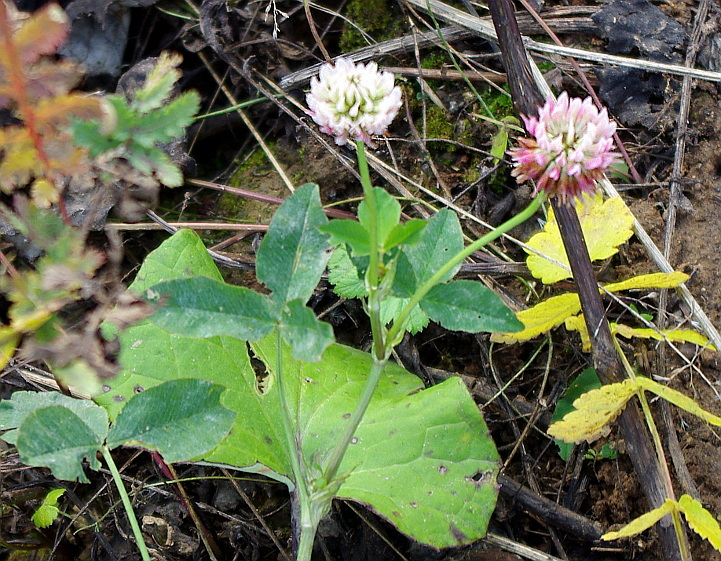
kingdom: Plantae
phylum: Tracheophyta
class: Magnoliopsida
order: Fabales
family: Fabaceae
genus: Trifolium
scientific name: Trifolium hybridum
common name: Alsike clover
